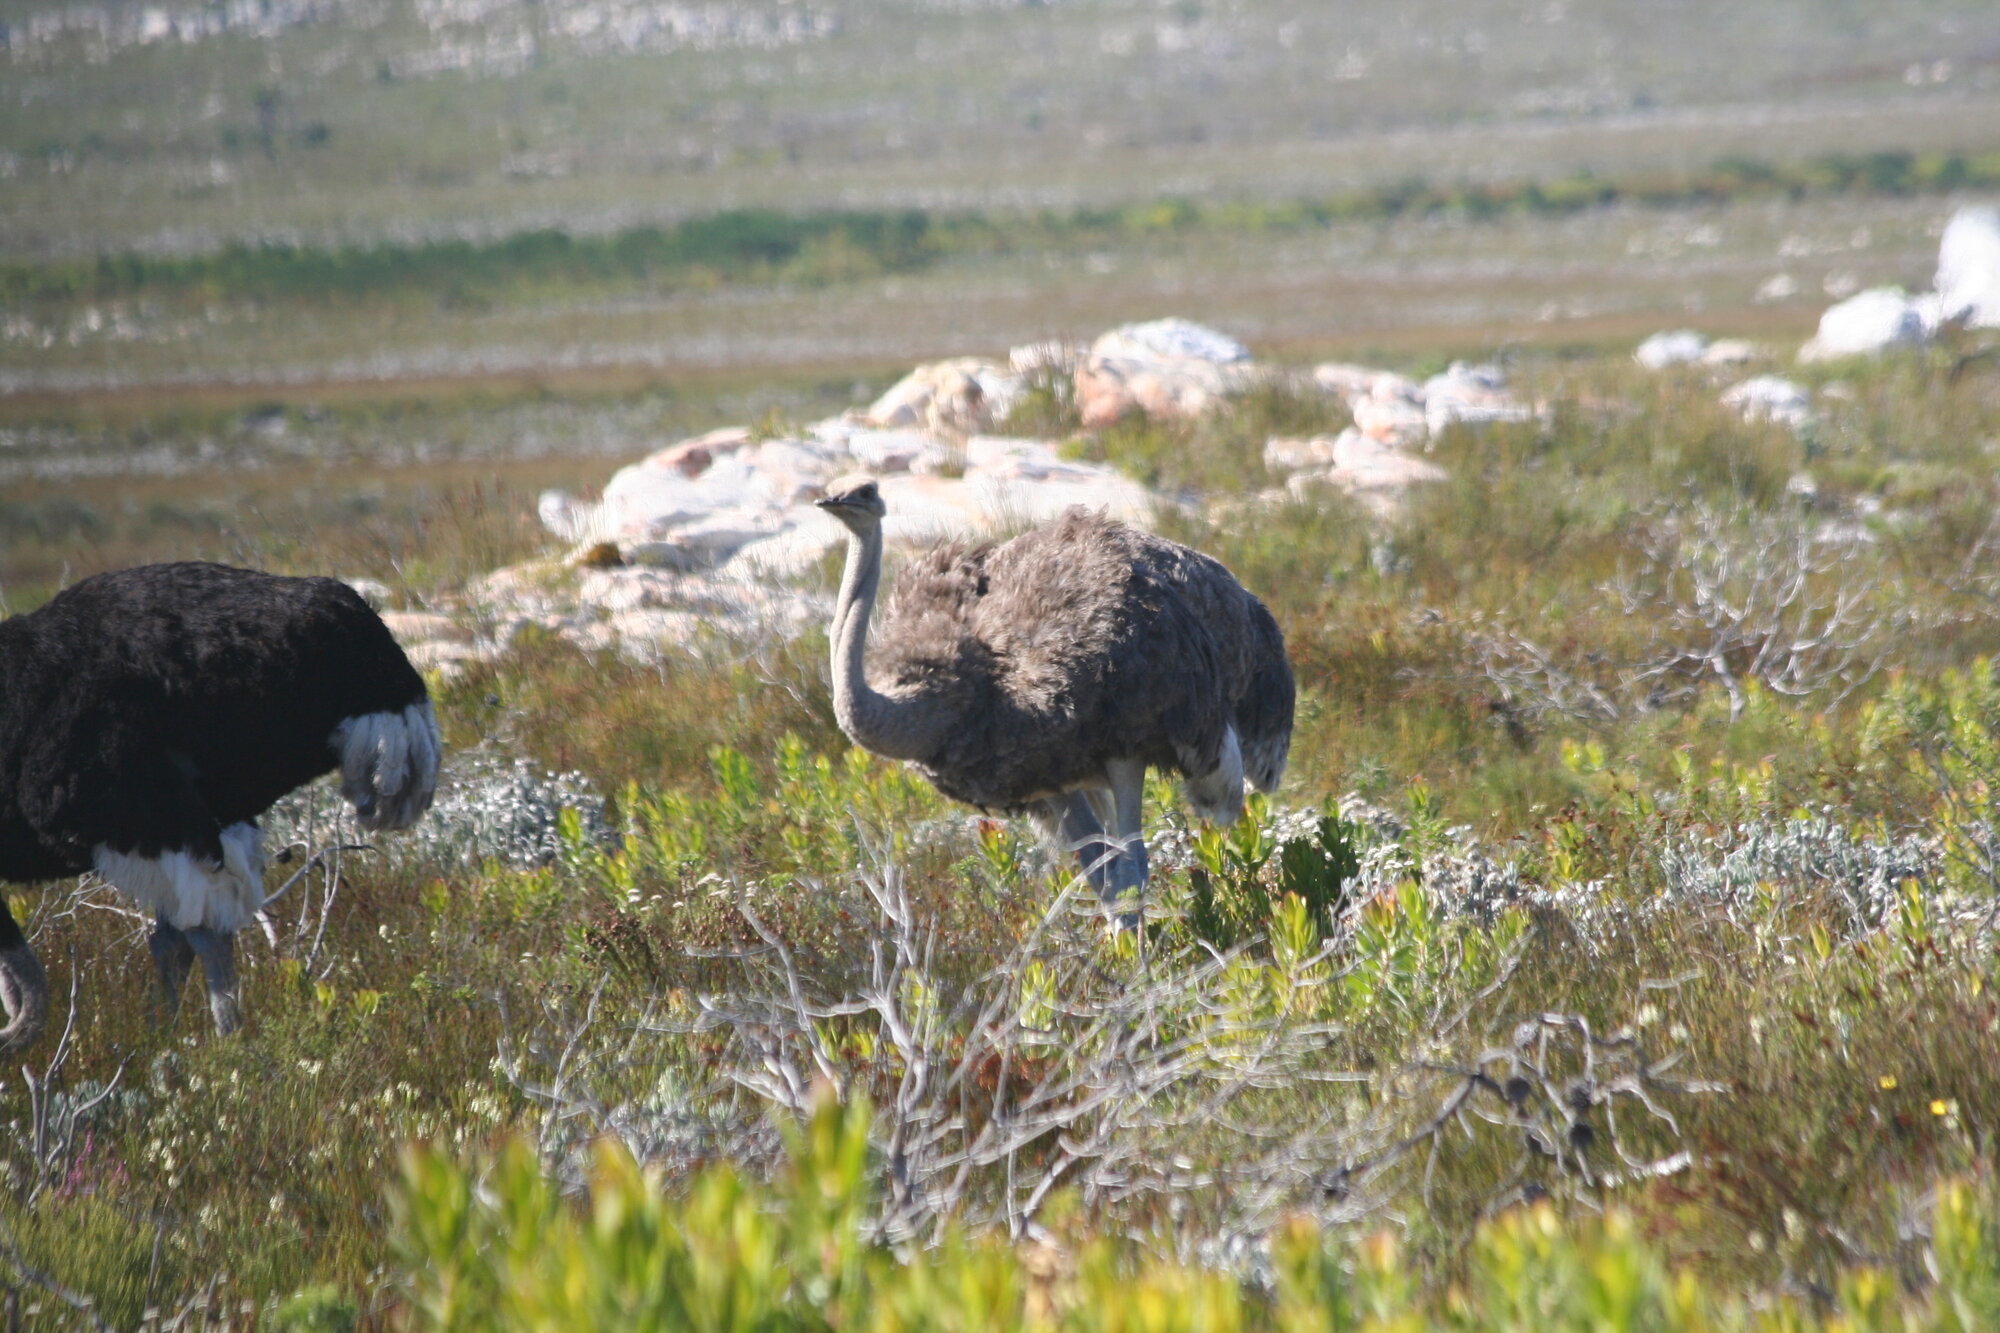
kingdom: Animalia
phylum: Chordata
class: Aves
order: Struthioniformes
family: Struthionidae
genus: Struthio
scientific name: Struthio camelus
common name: Common ostrich
